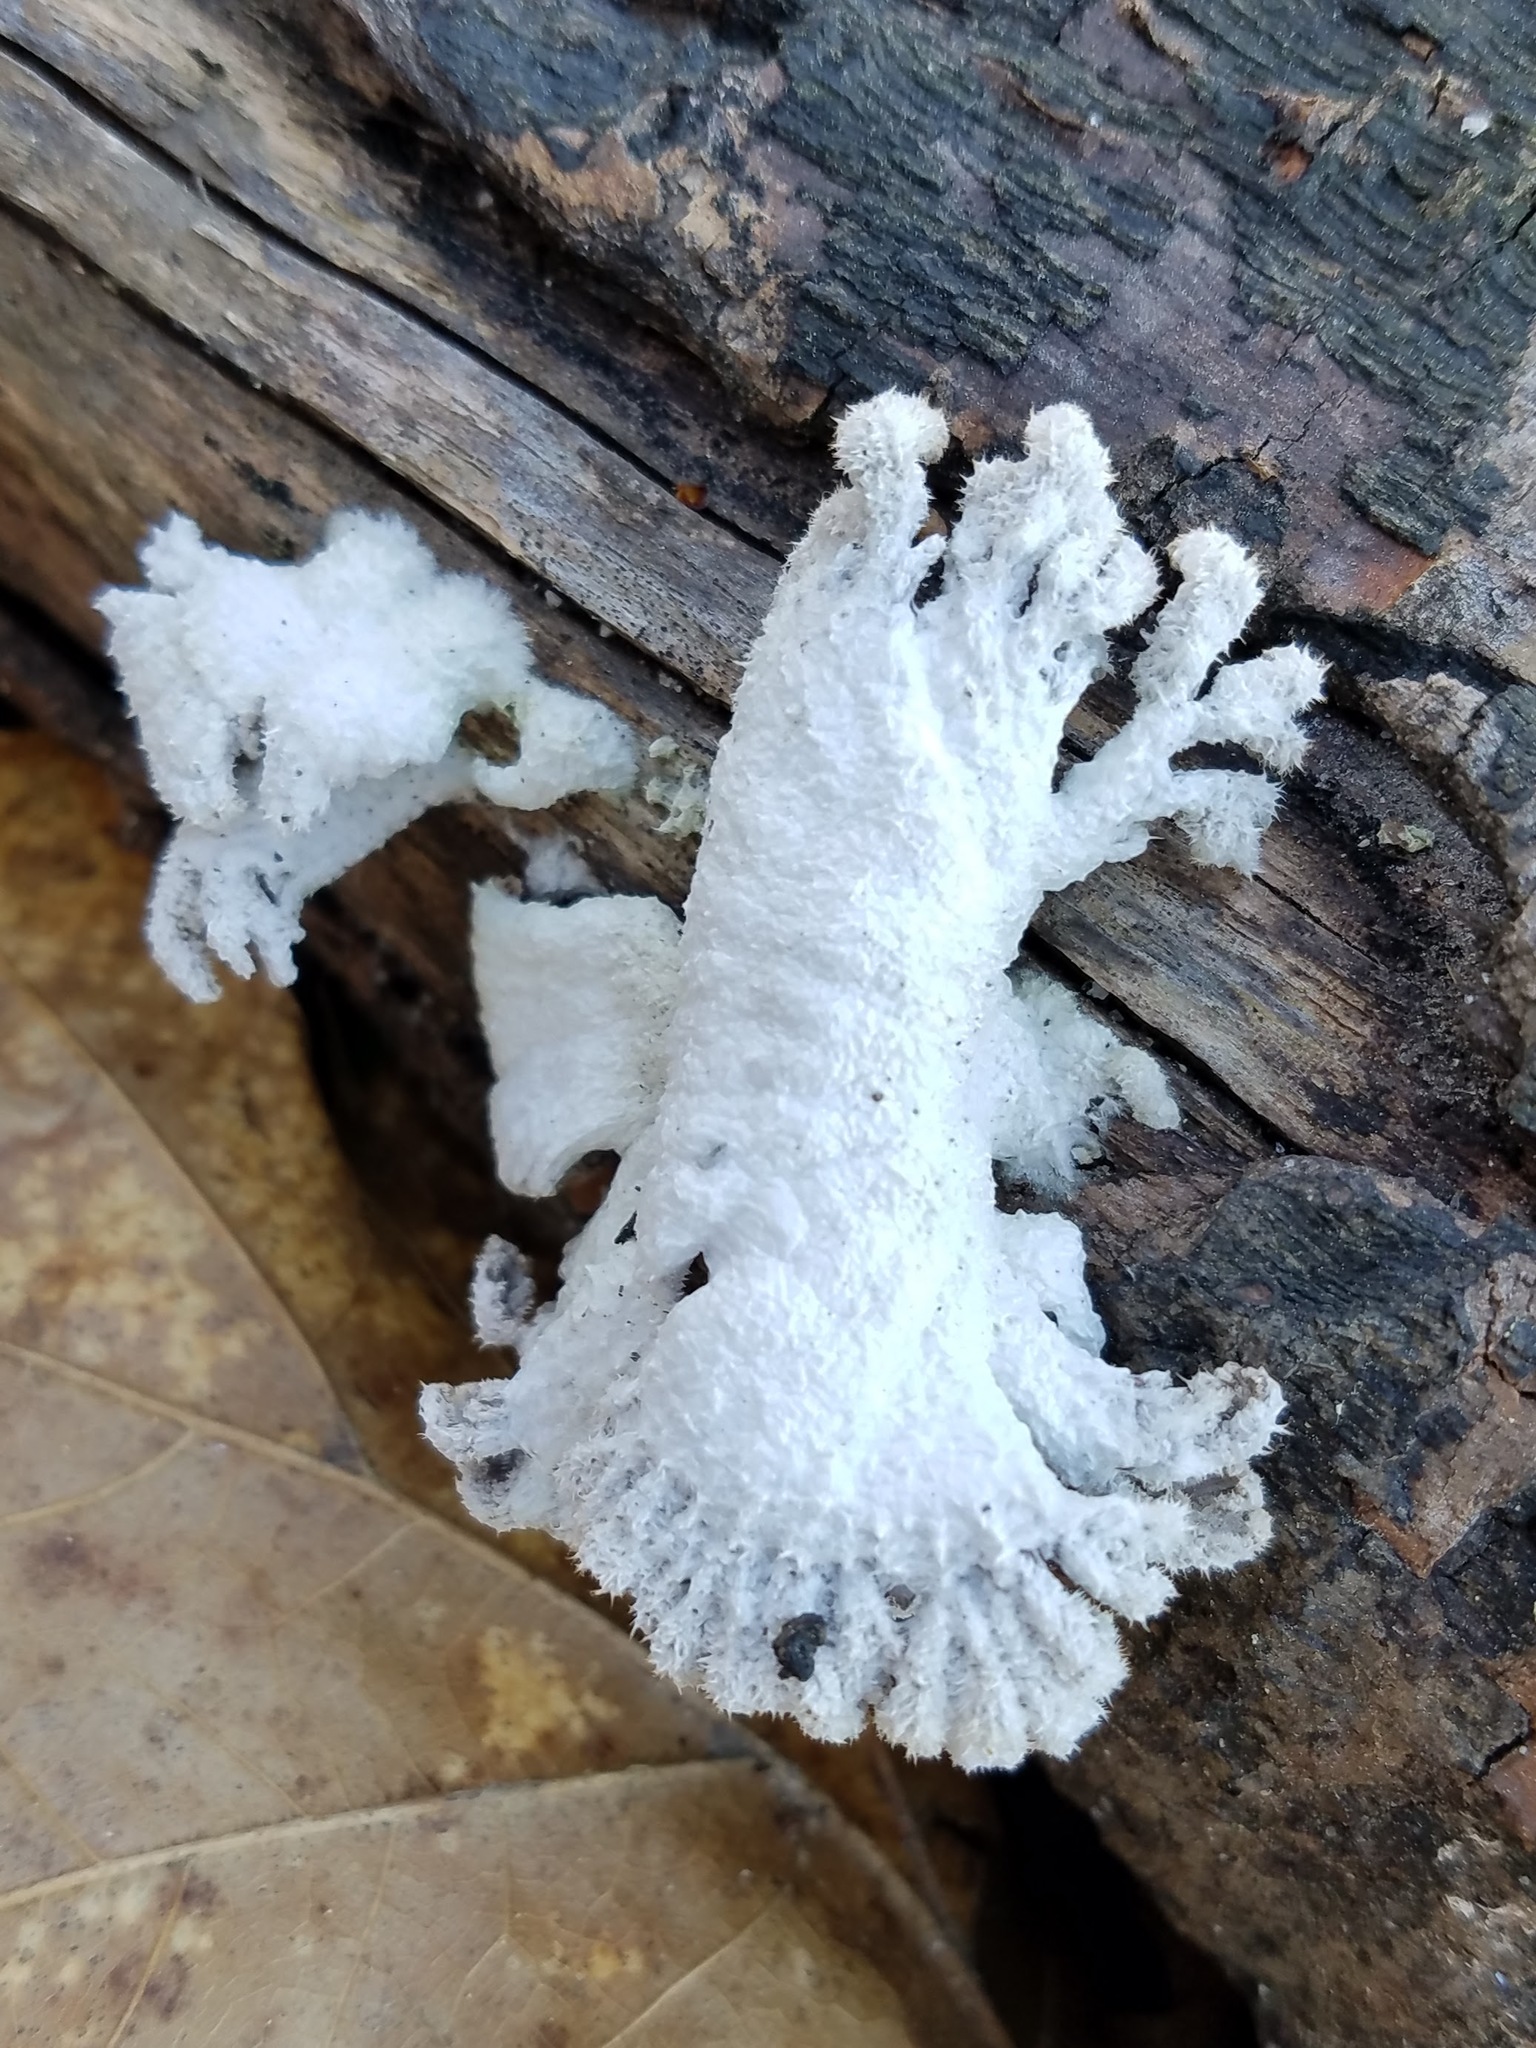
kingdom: Fungi
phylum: Basidiomycota
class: Agaricomycetes
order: Agaricales
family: Schizophyllaceae
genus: Schizophyllum
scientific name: Schizophyllum commune
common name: Common porecrust
